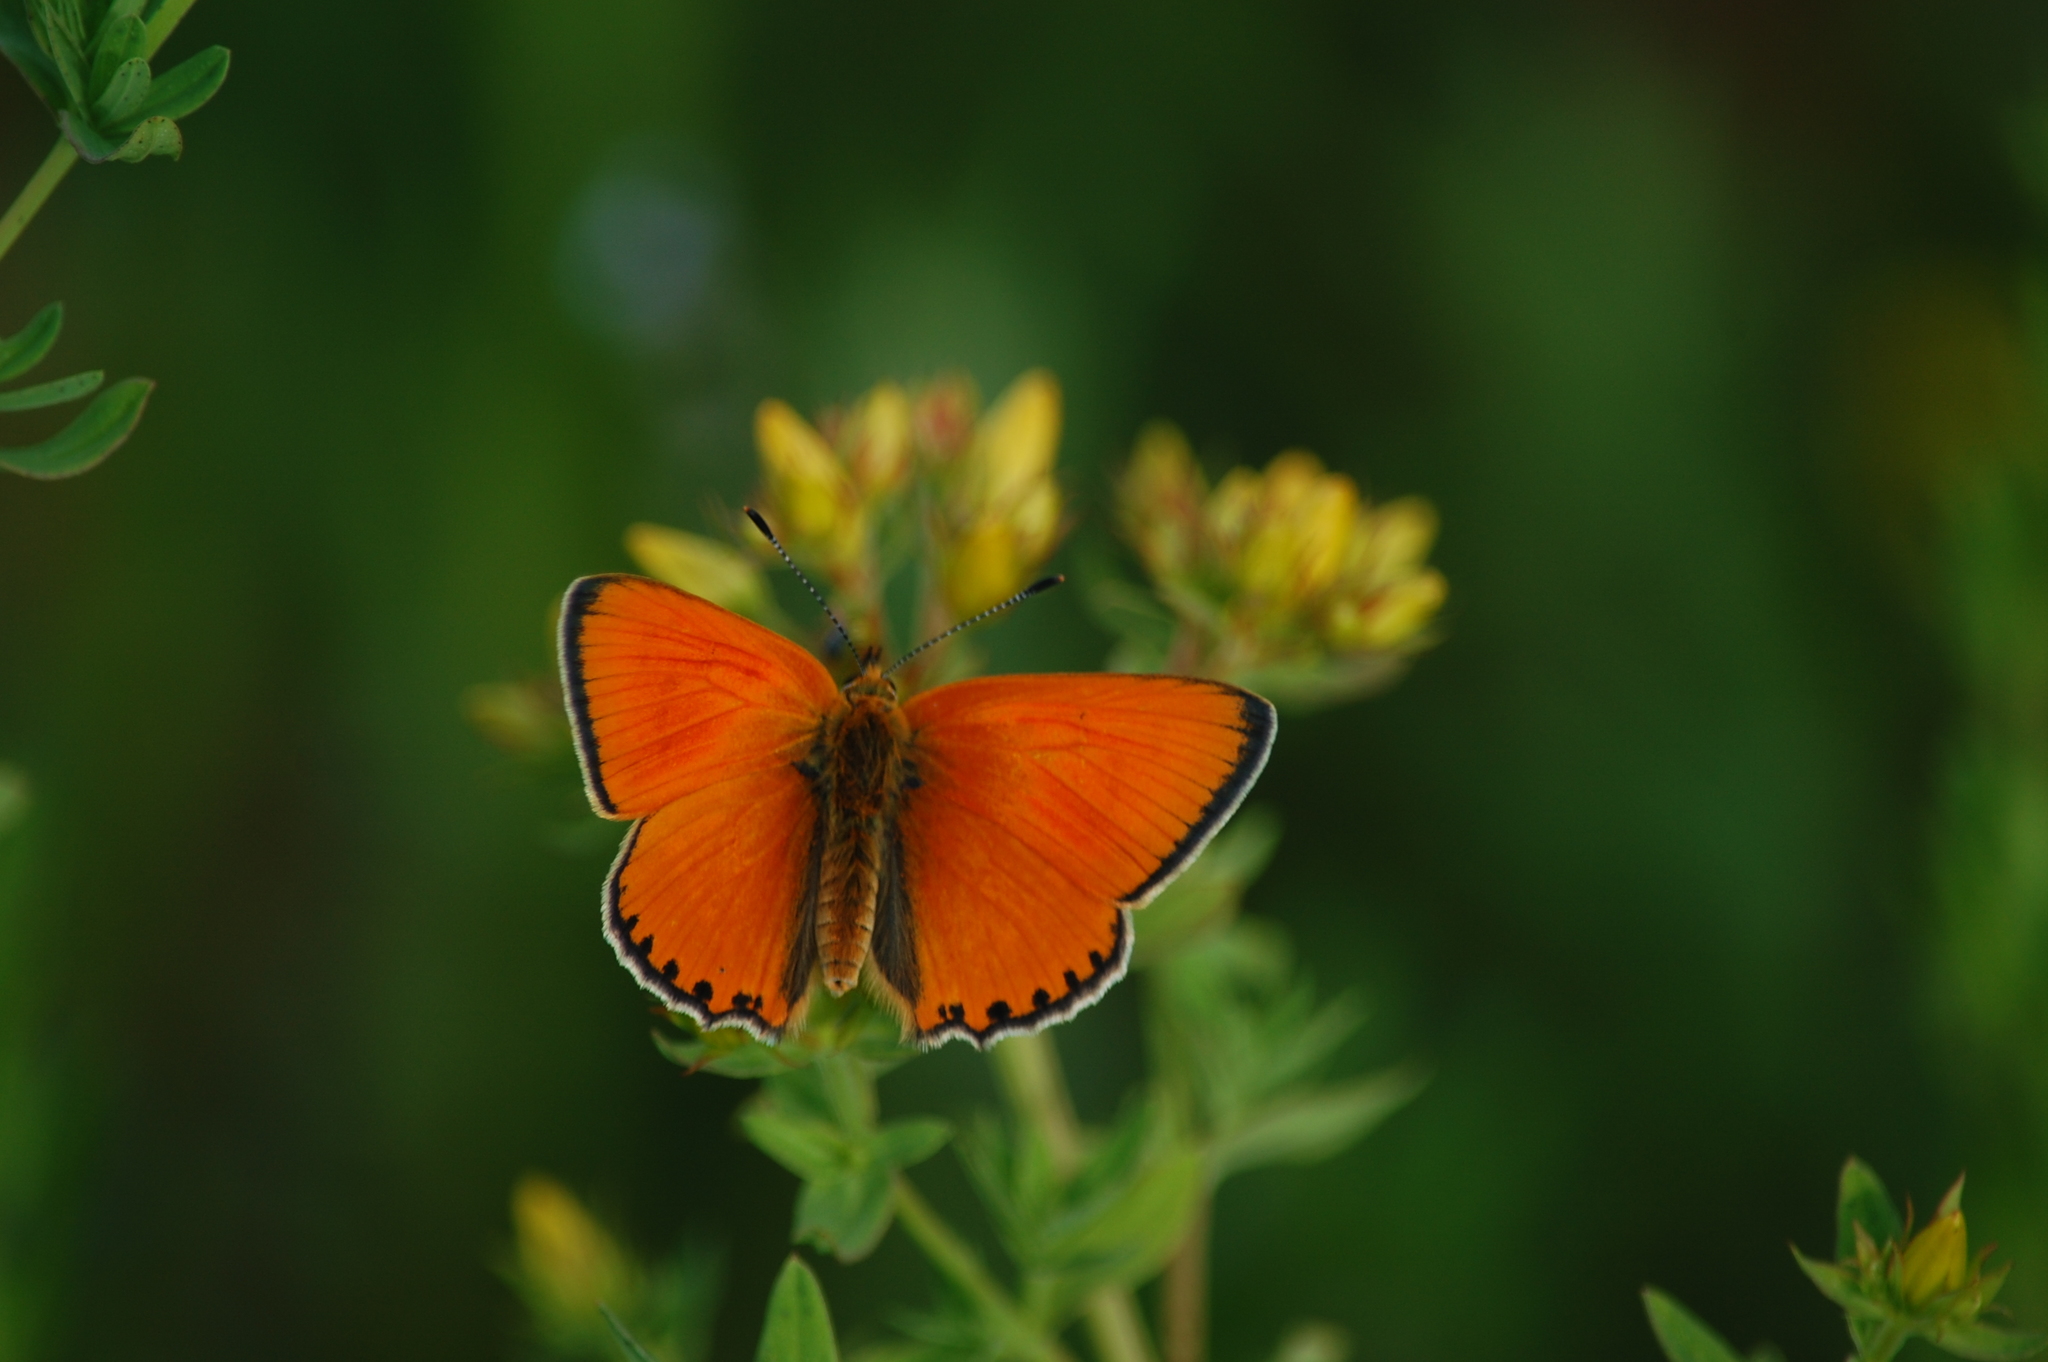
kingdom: Animalia
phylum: Arthropoda
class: Insecta
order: Lepidoptera
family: Lycaenidae
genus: Lycaena
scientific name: Lycaena virgaureae
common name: Scarce copper
